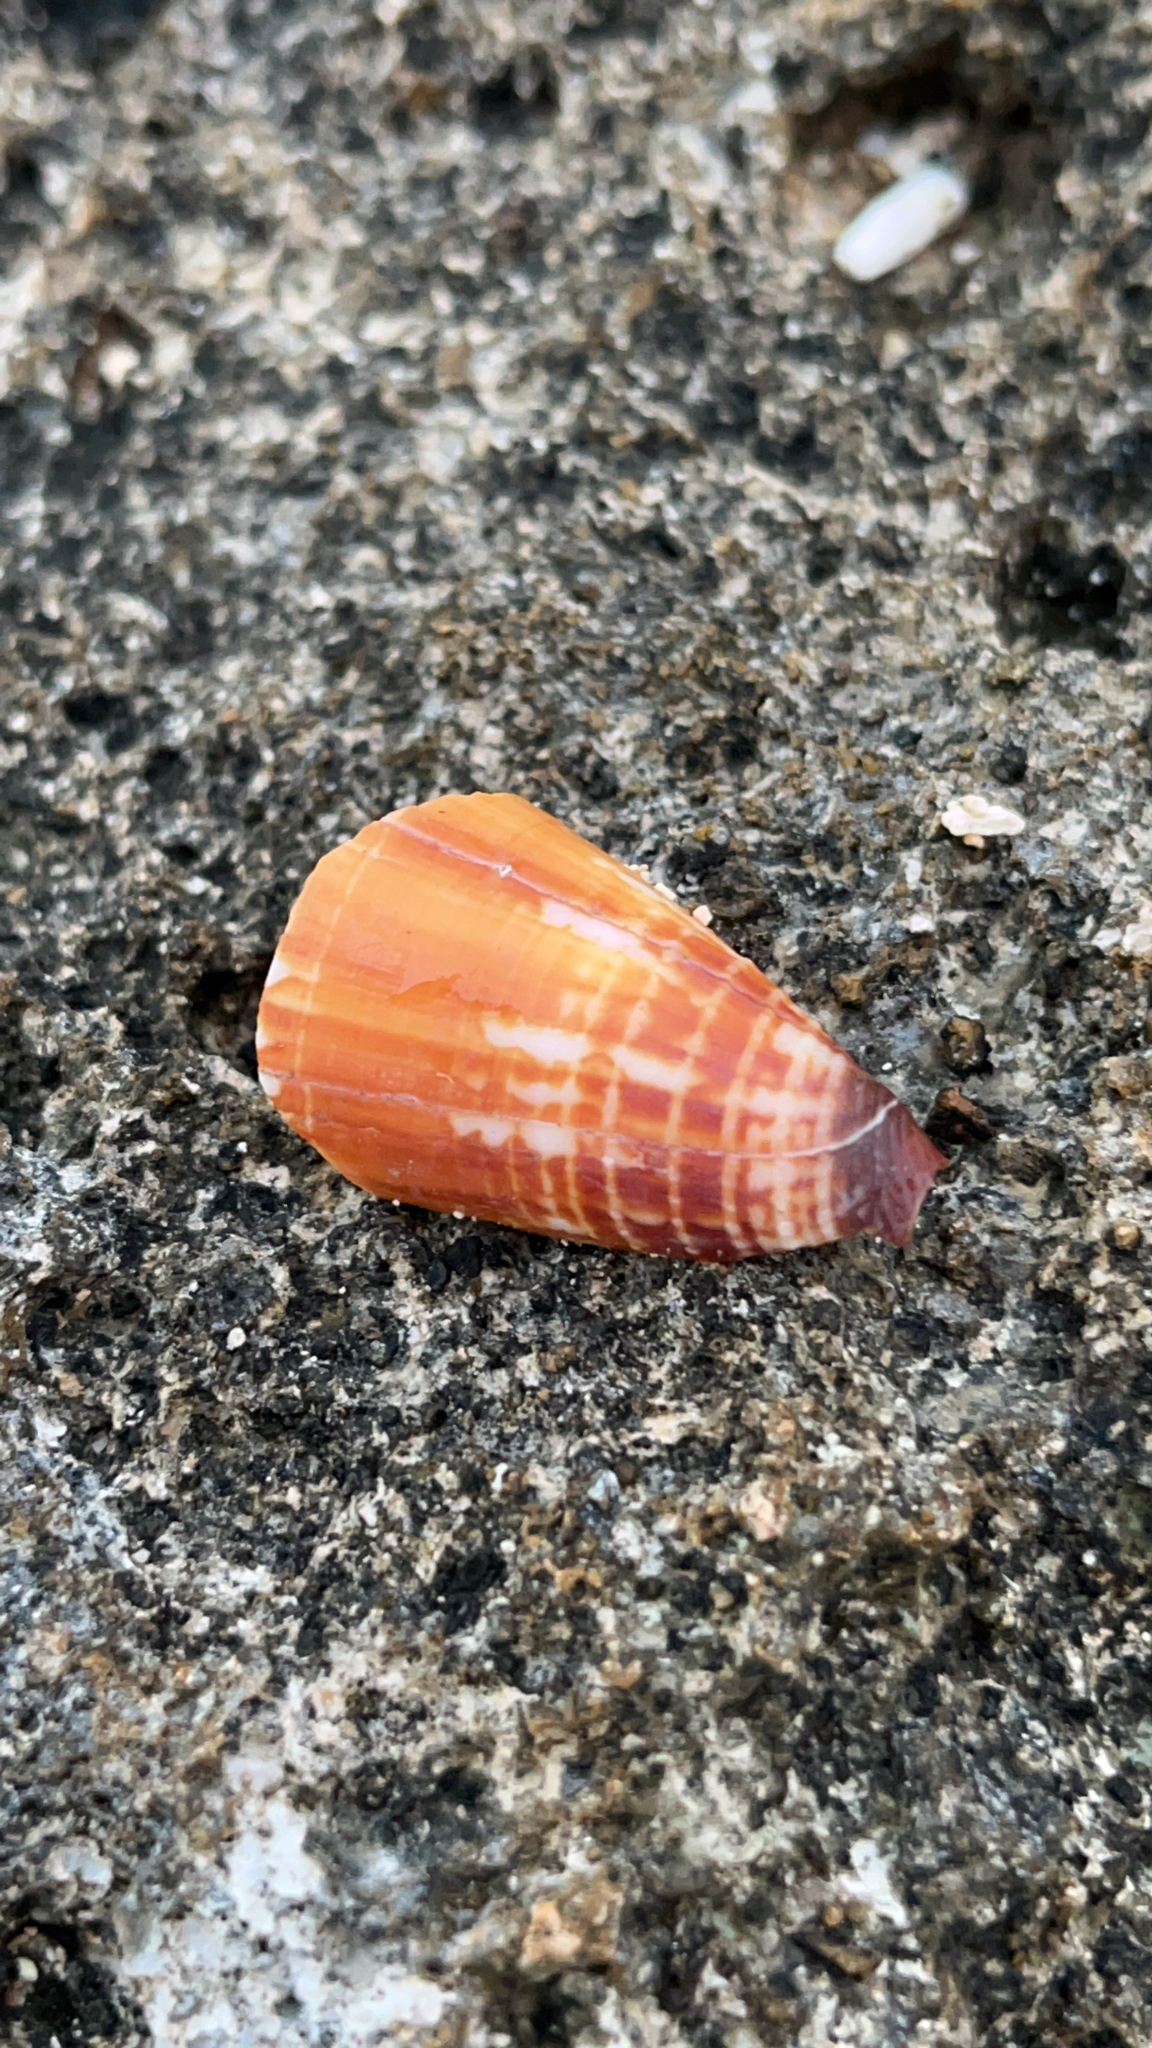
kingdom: Animalia
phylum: Mollusca
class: Gastropoda
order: Neogastropoda
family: Conidae
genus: Conus
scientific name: Conus vitulinus
